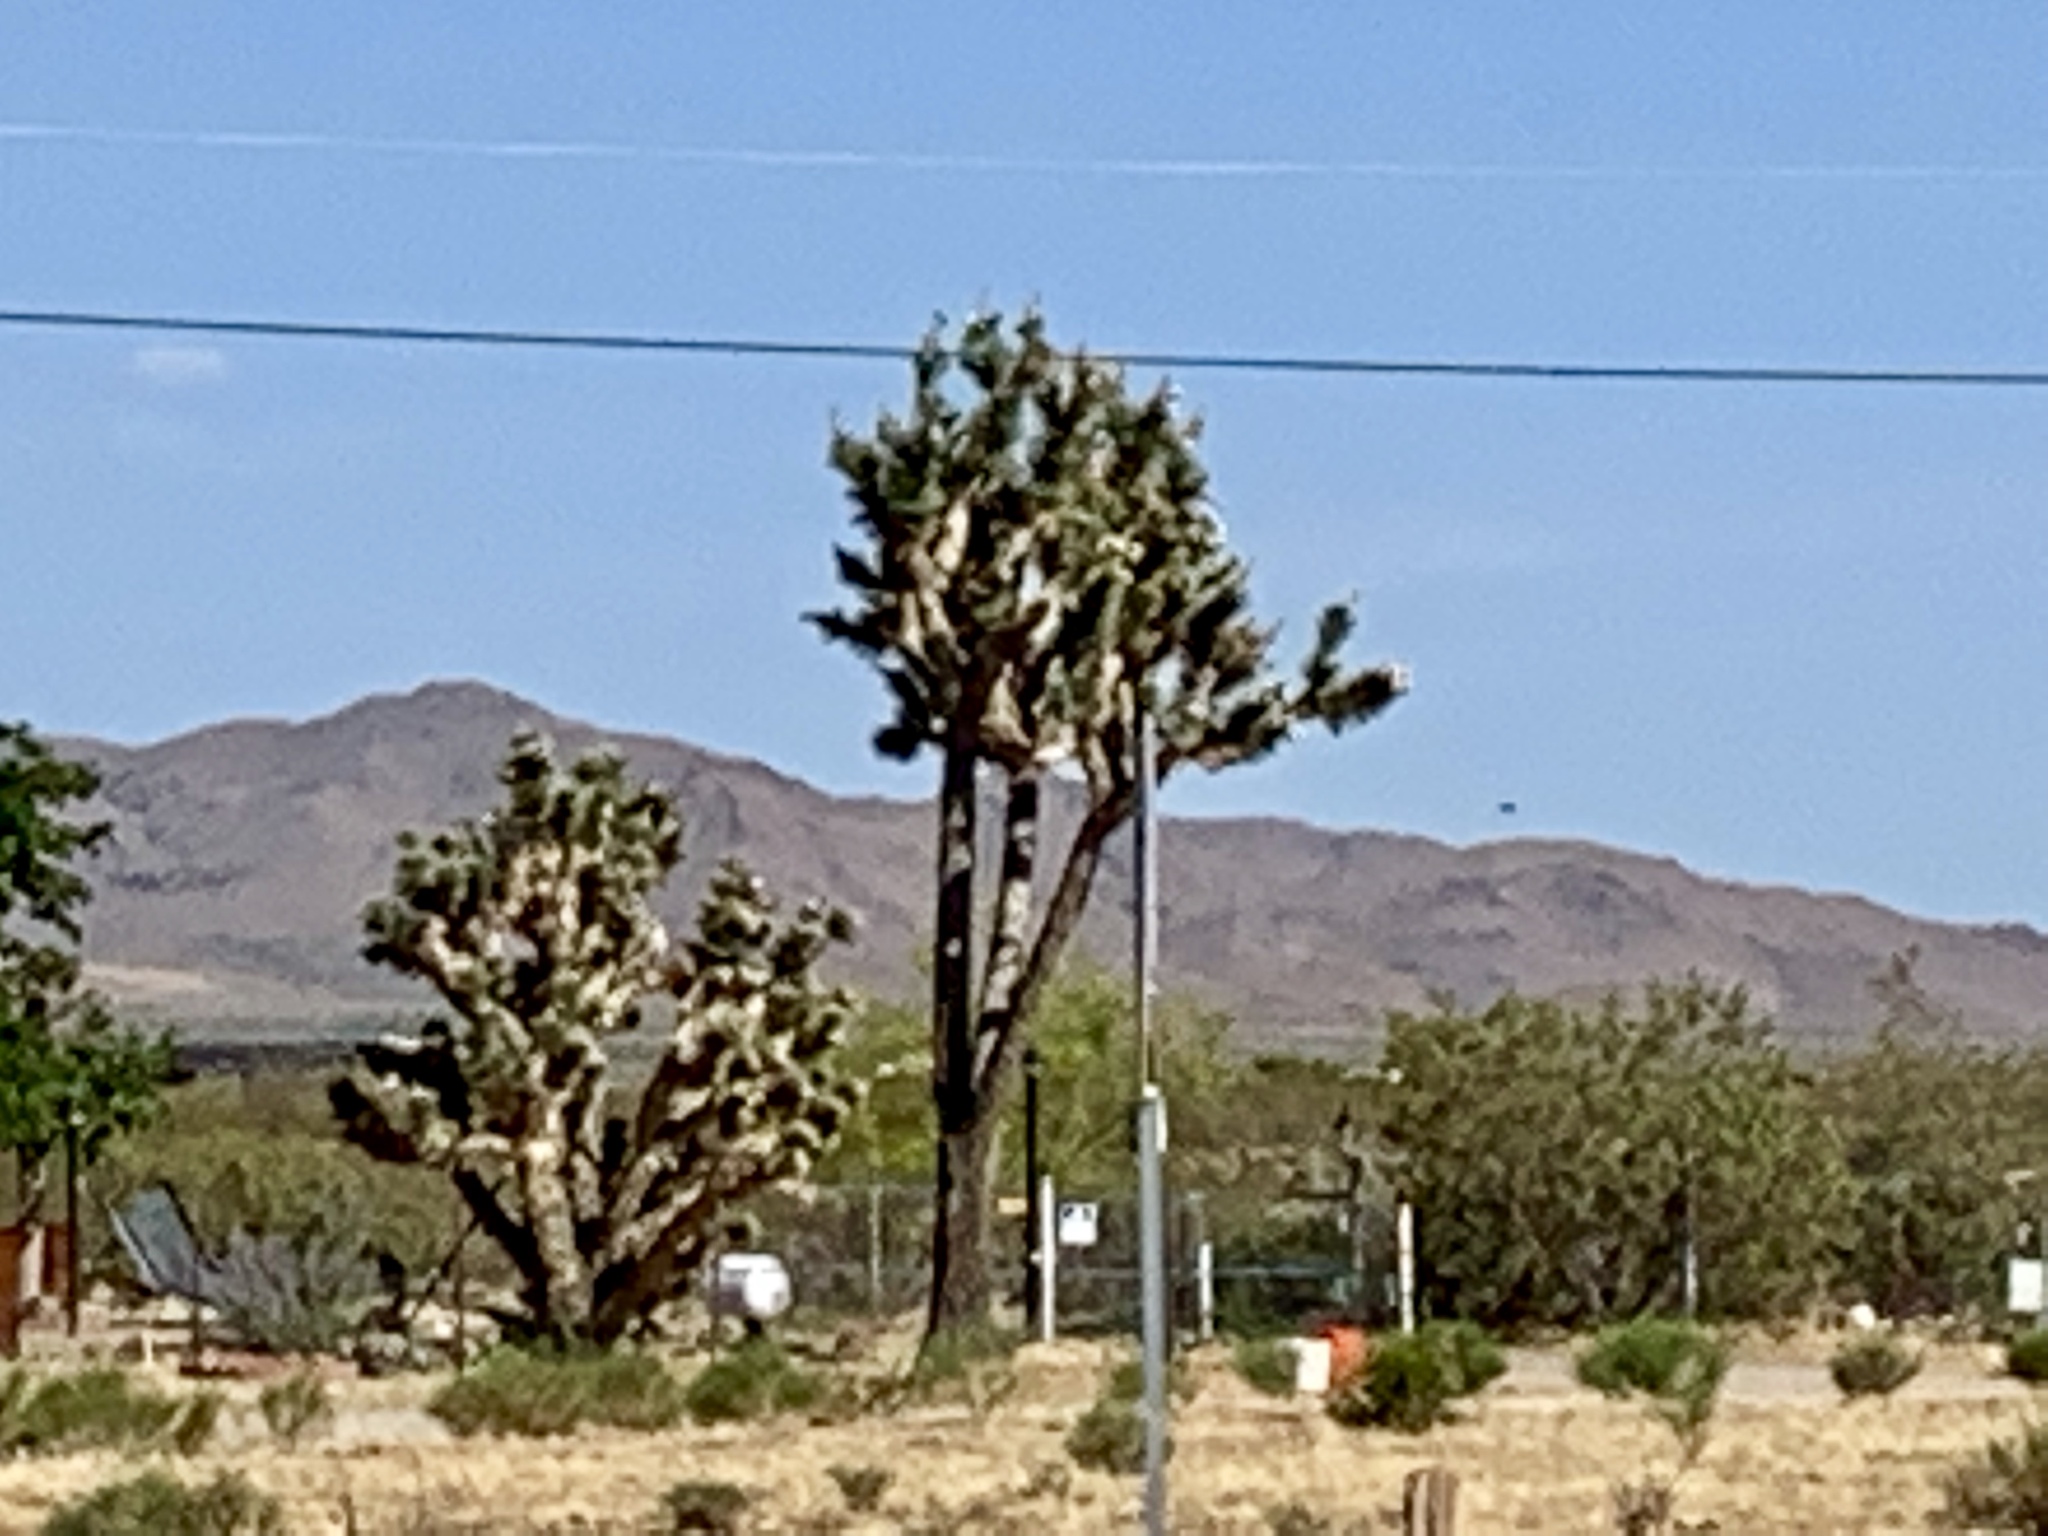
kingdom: Plantae
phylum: Tracheophyta
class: Liliopsida
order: Asparagales
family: Asparagaceae
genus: Yucca
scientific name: Yucca brevifolia
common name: Joshua tree
